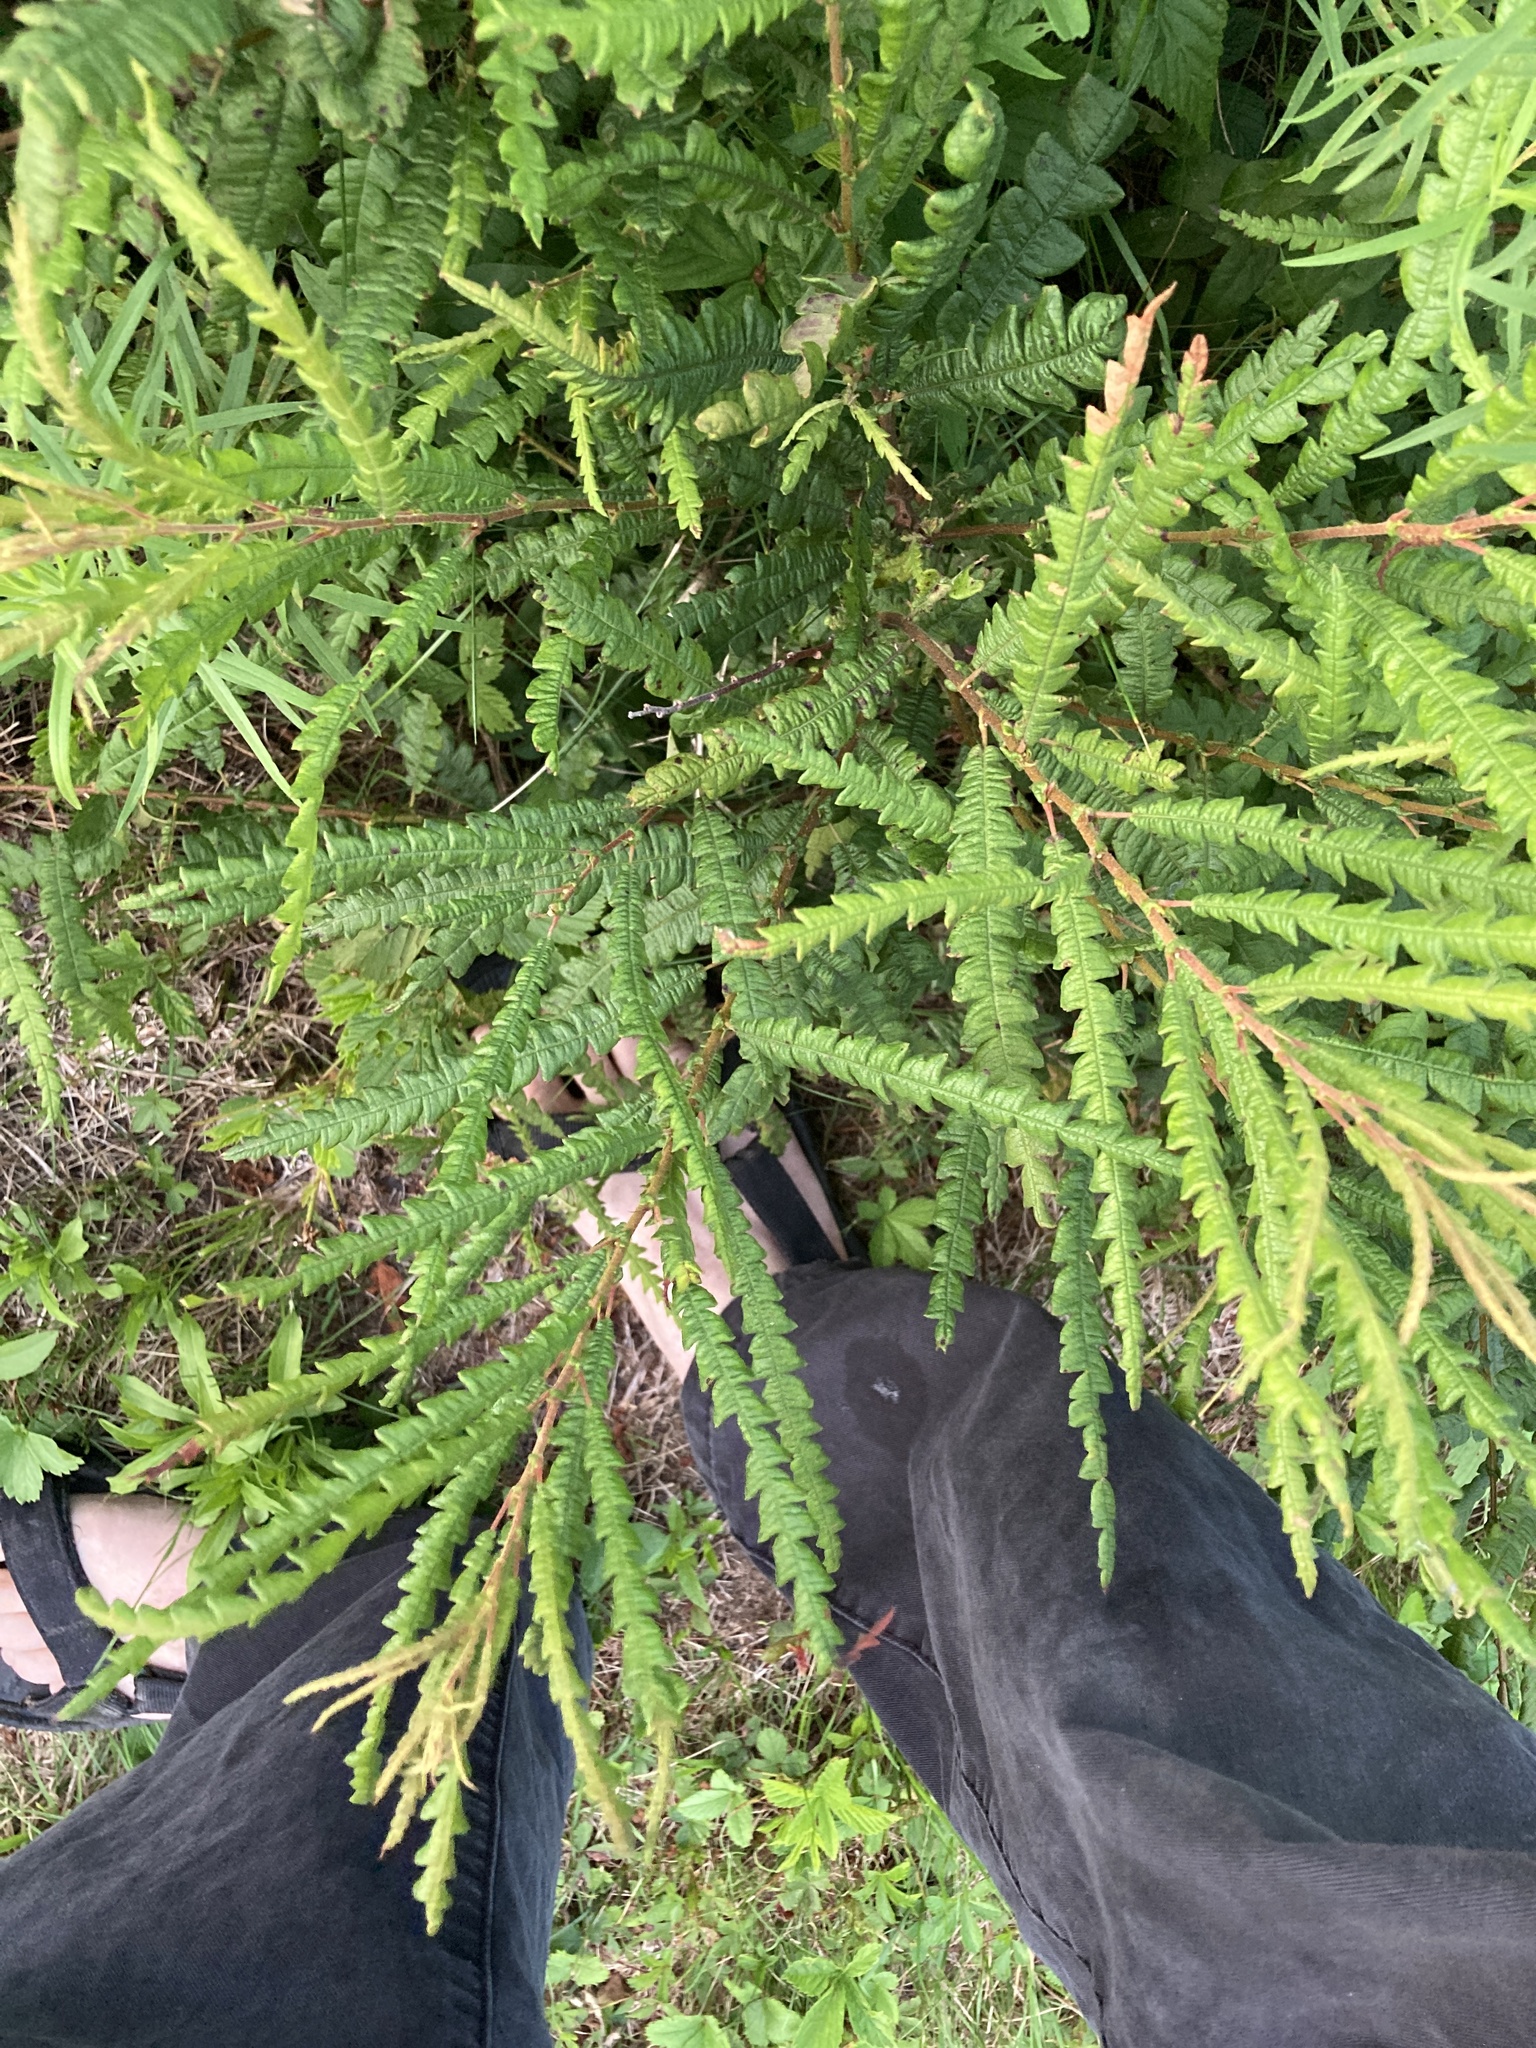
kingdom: Plantae
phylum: Tracheophyta
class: Magnoliopsida
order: Fagales
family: Myricaceae
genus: Comptonia
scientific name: Comptonia peregrina
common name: Sweet-fern
